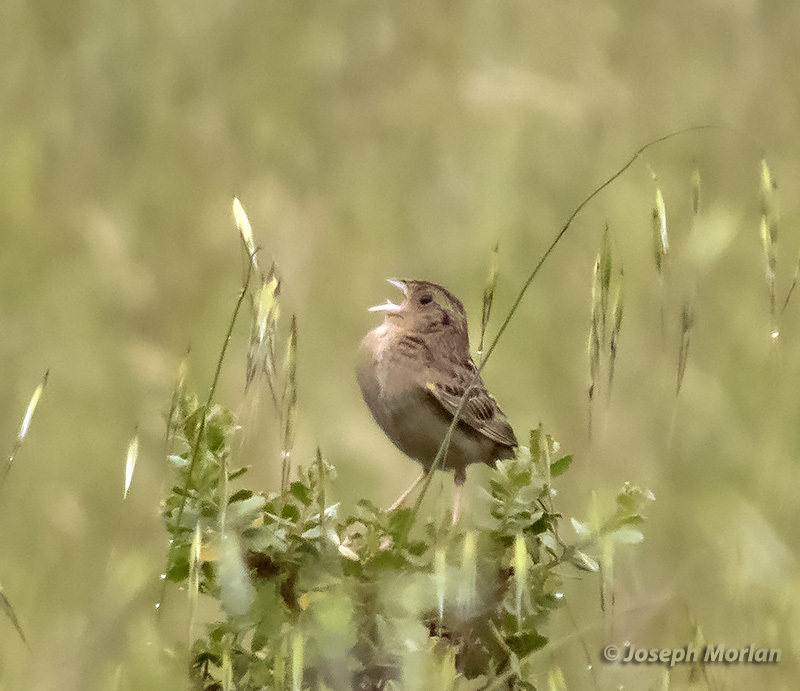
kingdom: Animalia
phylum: Chordata
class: Aves
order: Passeriformes
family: Passerellidae
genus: Ammodramus
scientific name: Ammodramus savannarum
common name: Grasshopper sparrow
